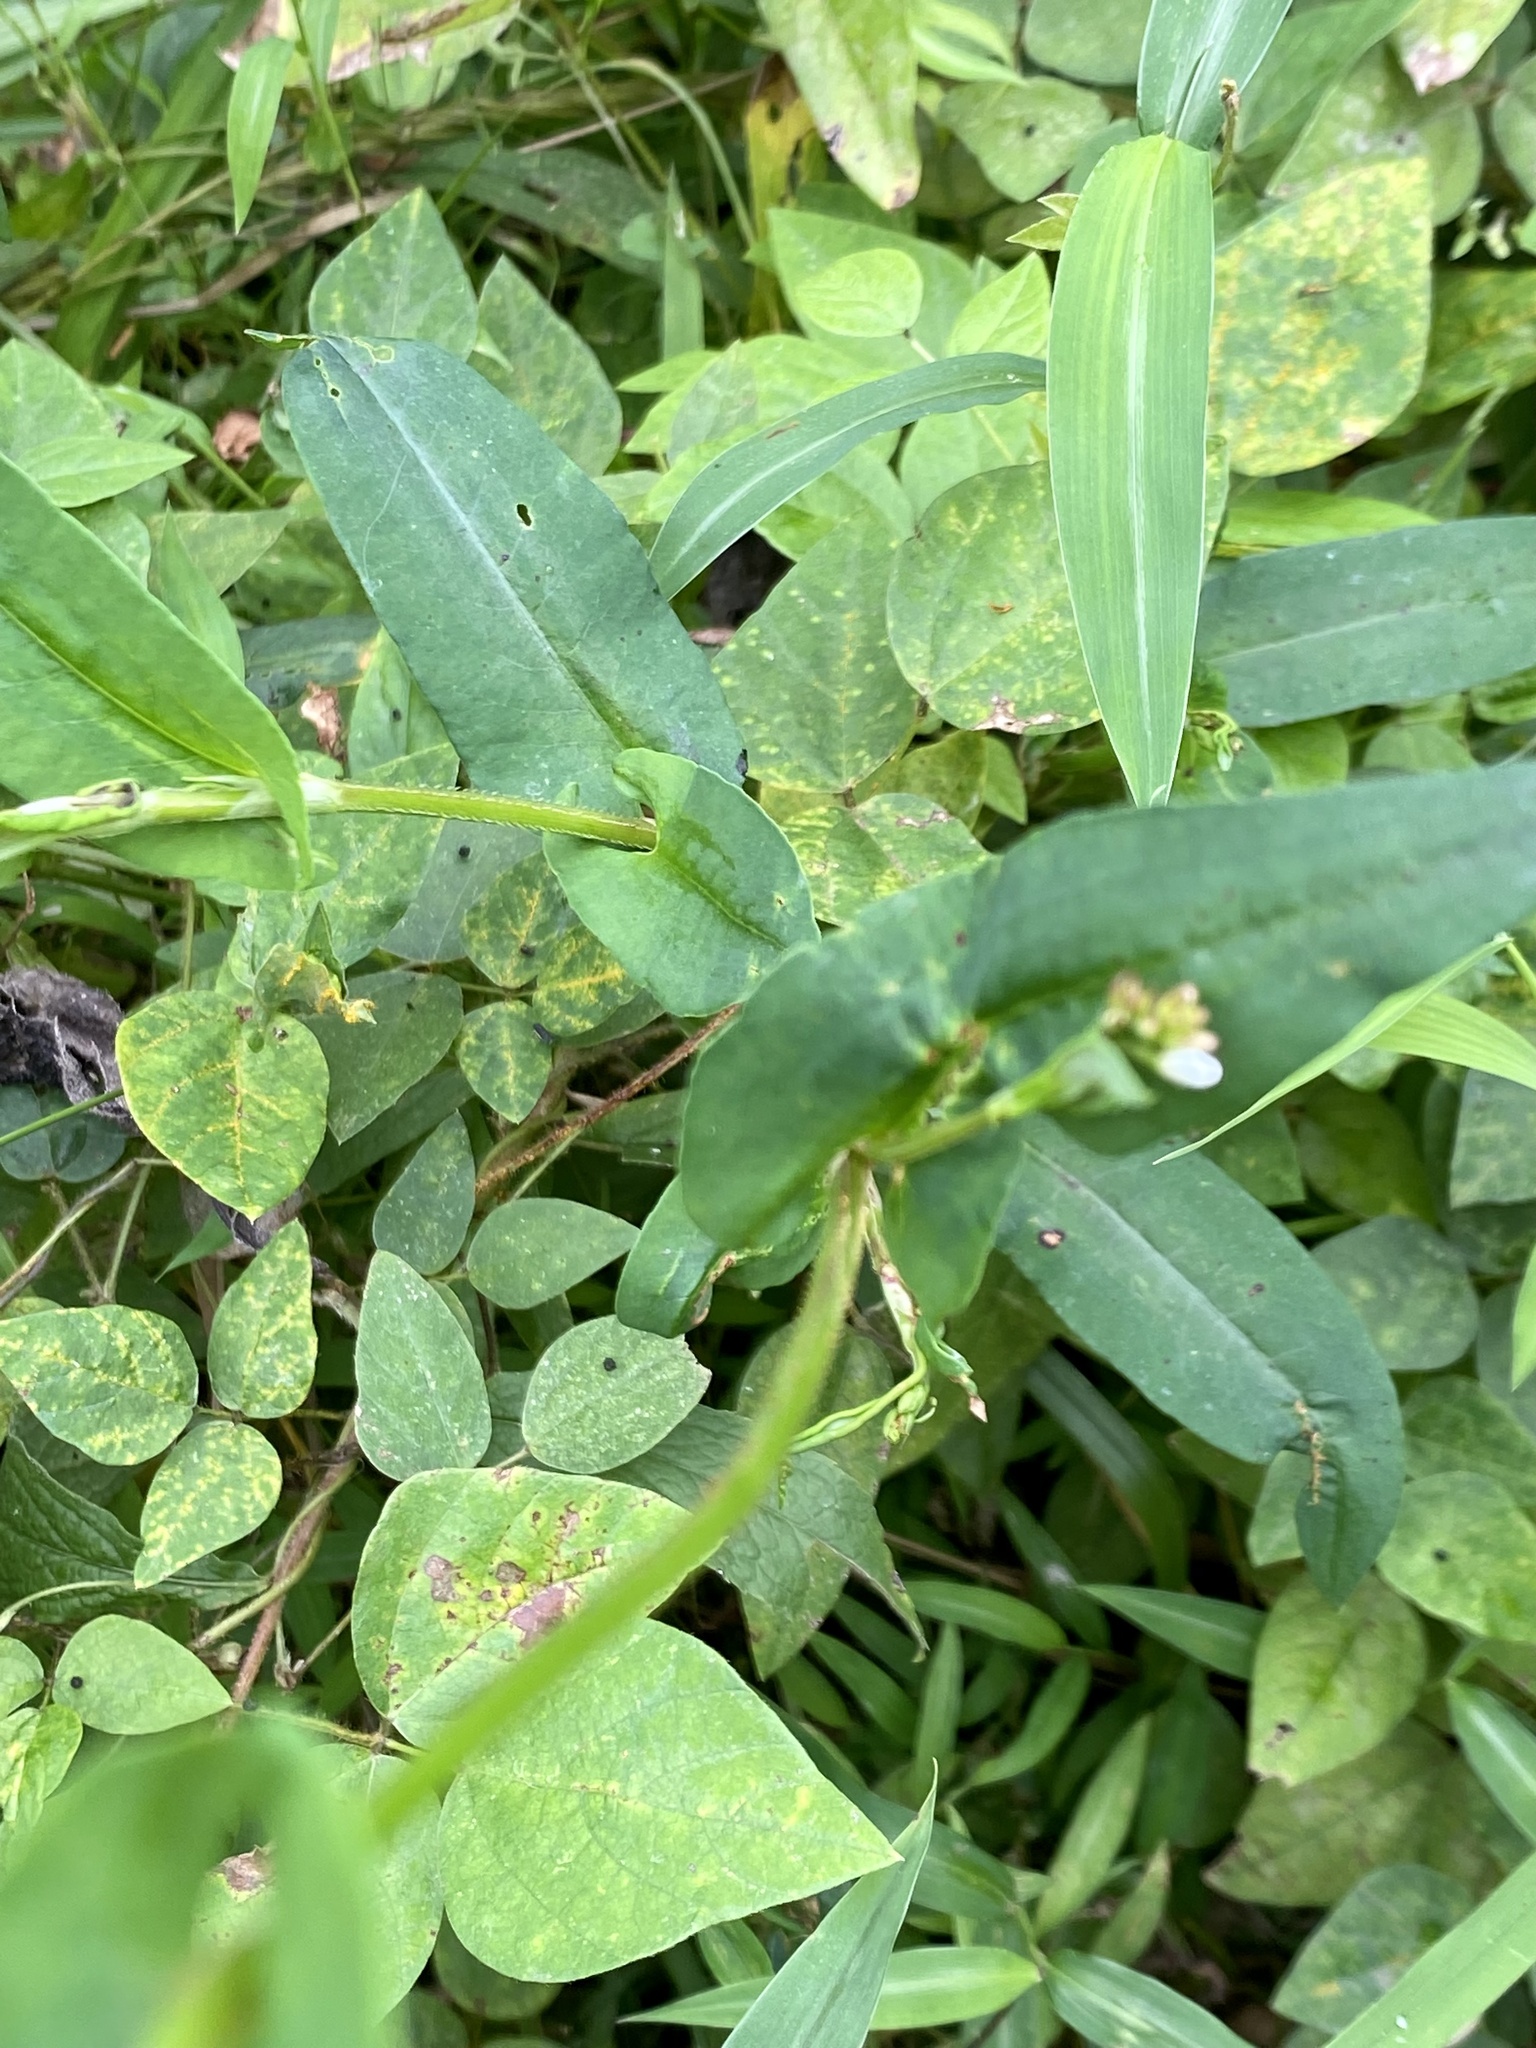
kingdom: Fungi
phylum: Chytridiomycota
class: Chytridiomycetes
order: Chytridiales
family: Synchytriaceae
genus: Miyabella
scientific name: Miyabella aecidioides
